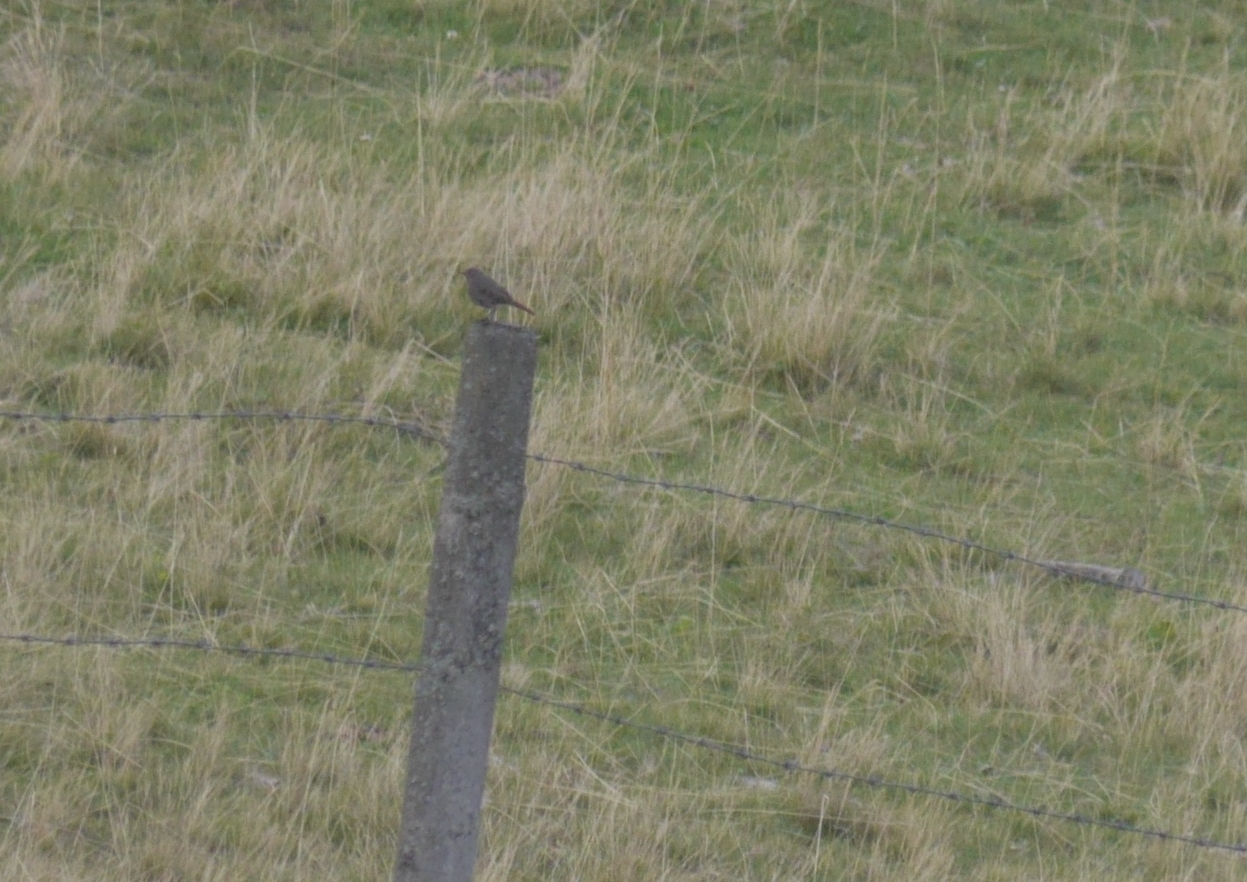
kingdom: Animalia
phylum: Chordata
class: Aves
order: Passeriformes
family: Muscicapidae
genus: Phoenicurus
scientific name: Phoenicurus ochruros
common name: Black redstart
